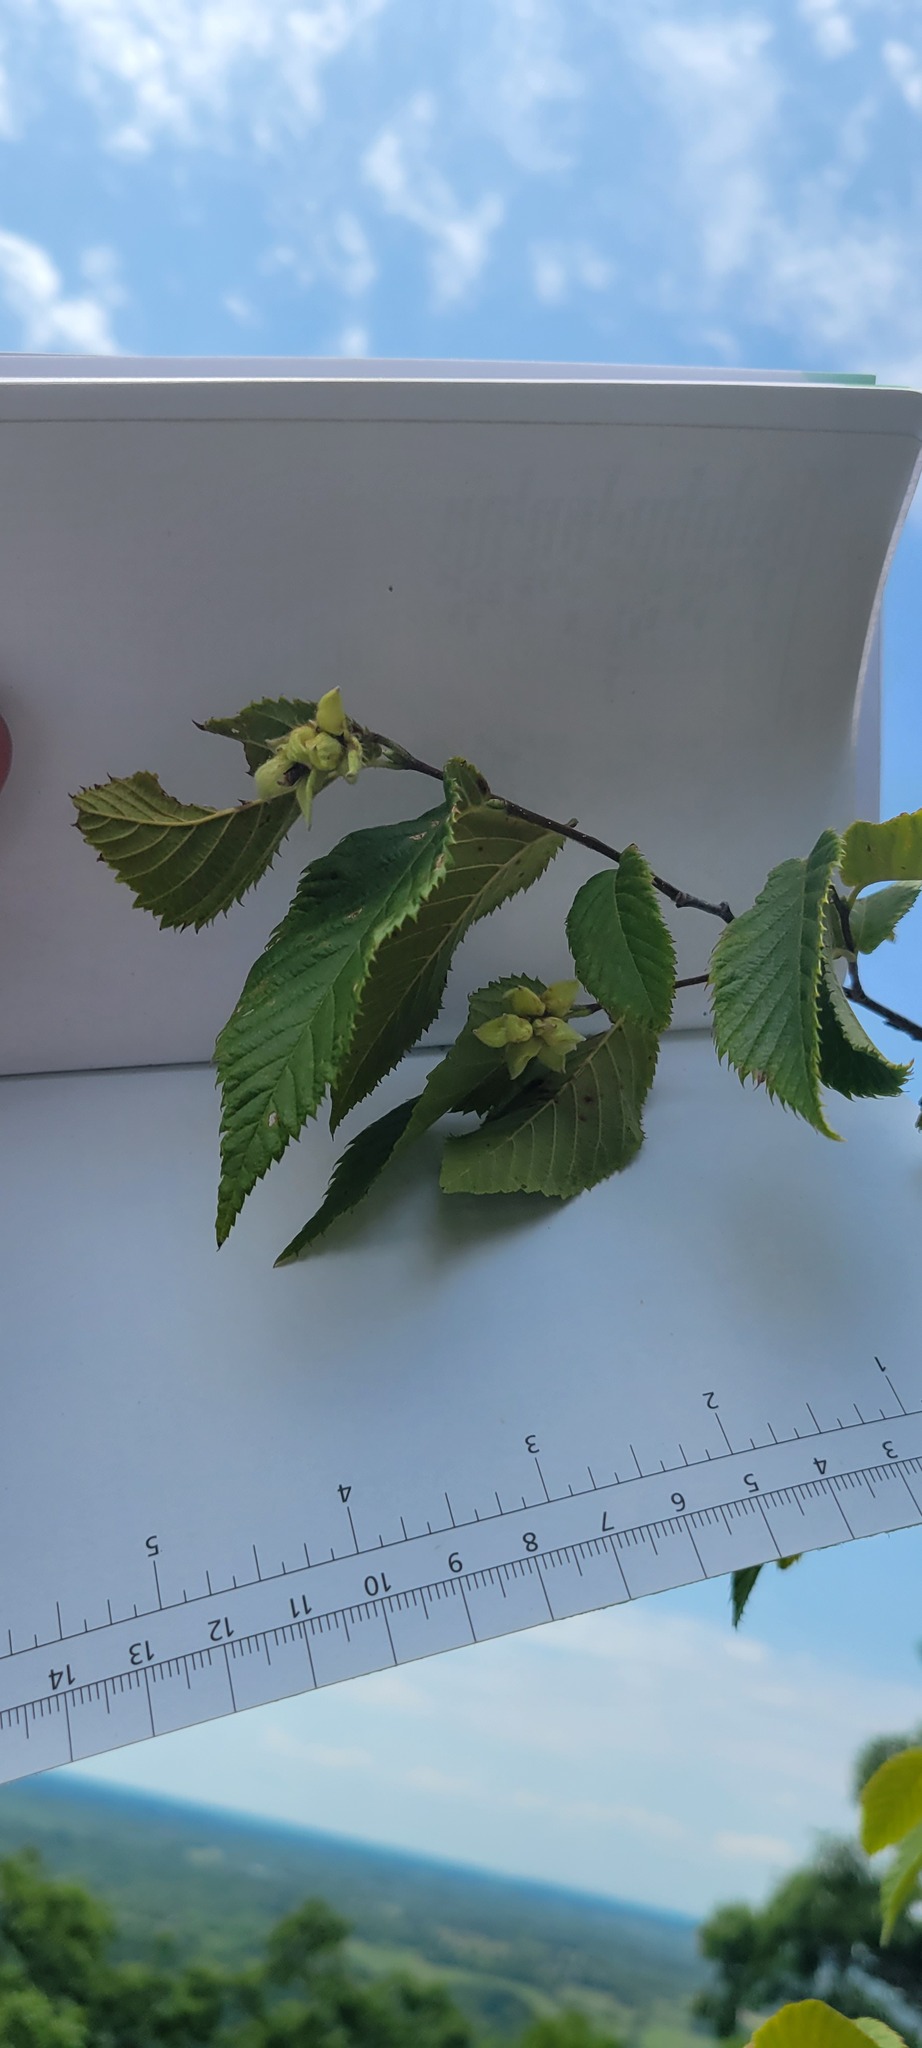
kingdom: Plantae
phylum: Tracheophyta
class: Magnoliopsida
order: Fagales
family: Betulaceae
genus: Ostrya
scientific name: Ostrya virginiana
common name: Ironwood
